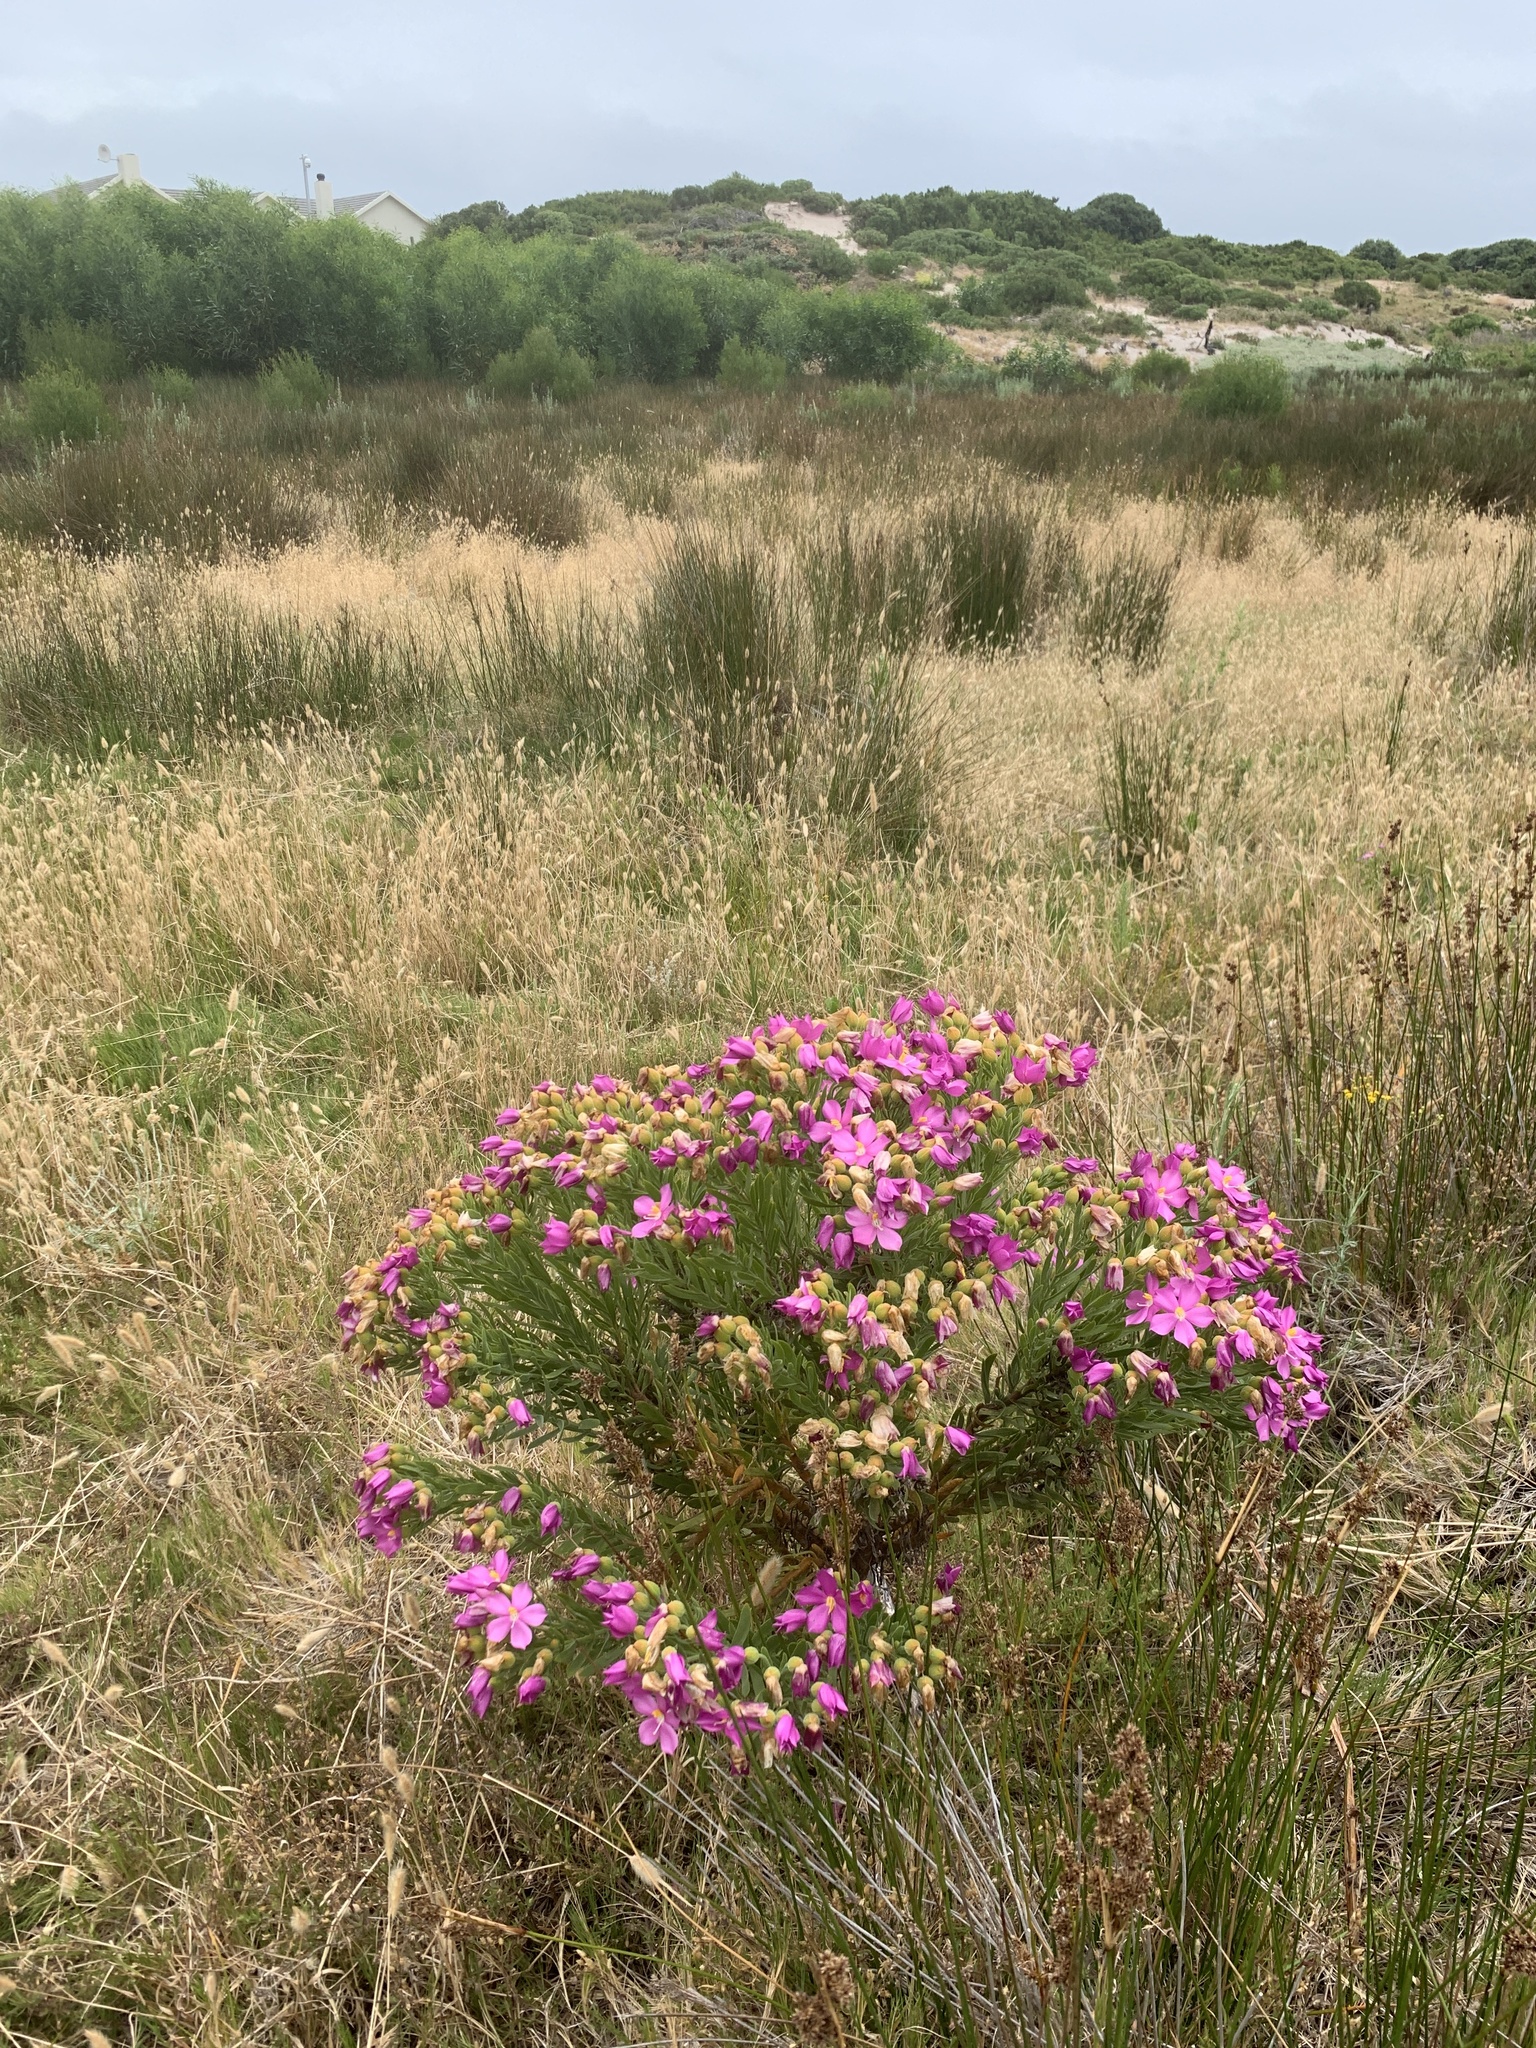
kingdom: Plantae
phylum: Tracheophyta
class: Magnoliopsida
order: Gentianales
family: Gentianaceae
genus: Orphium
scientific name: Orphium frutescens
